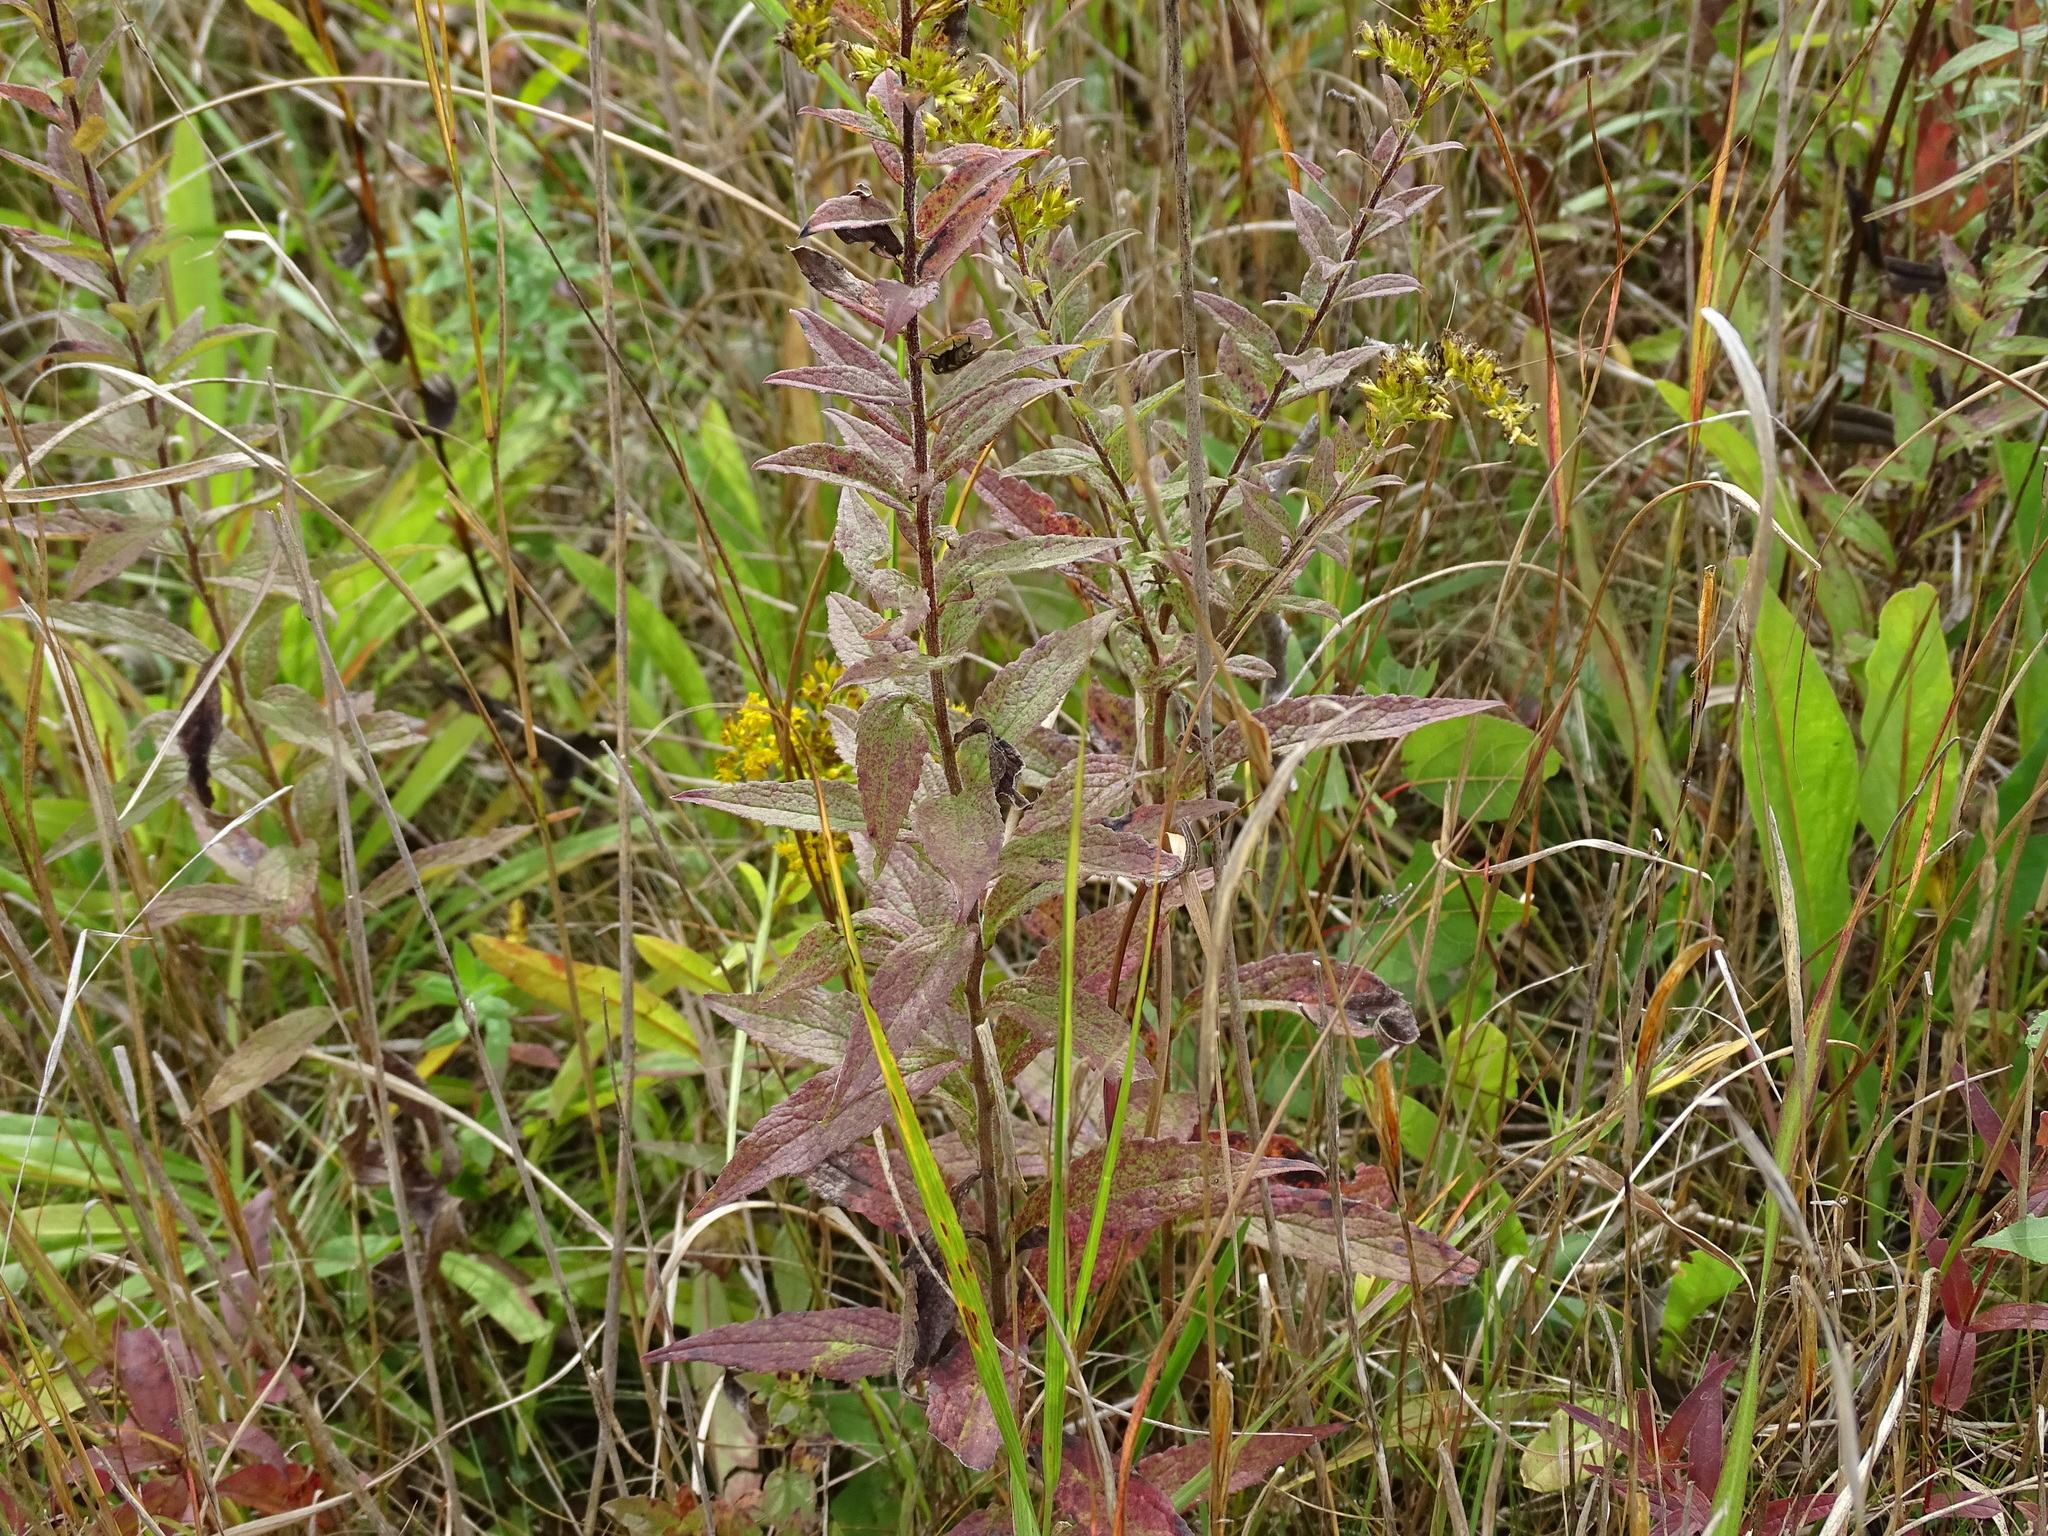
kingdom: Plantae
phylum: Tracheophyta
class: Magnoliopsida
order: Asterales
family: Asteraceae
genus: Solidago
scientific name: Solidago rugosa
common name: Rough-stemmed goldenrod
